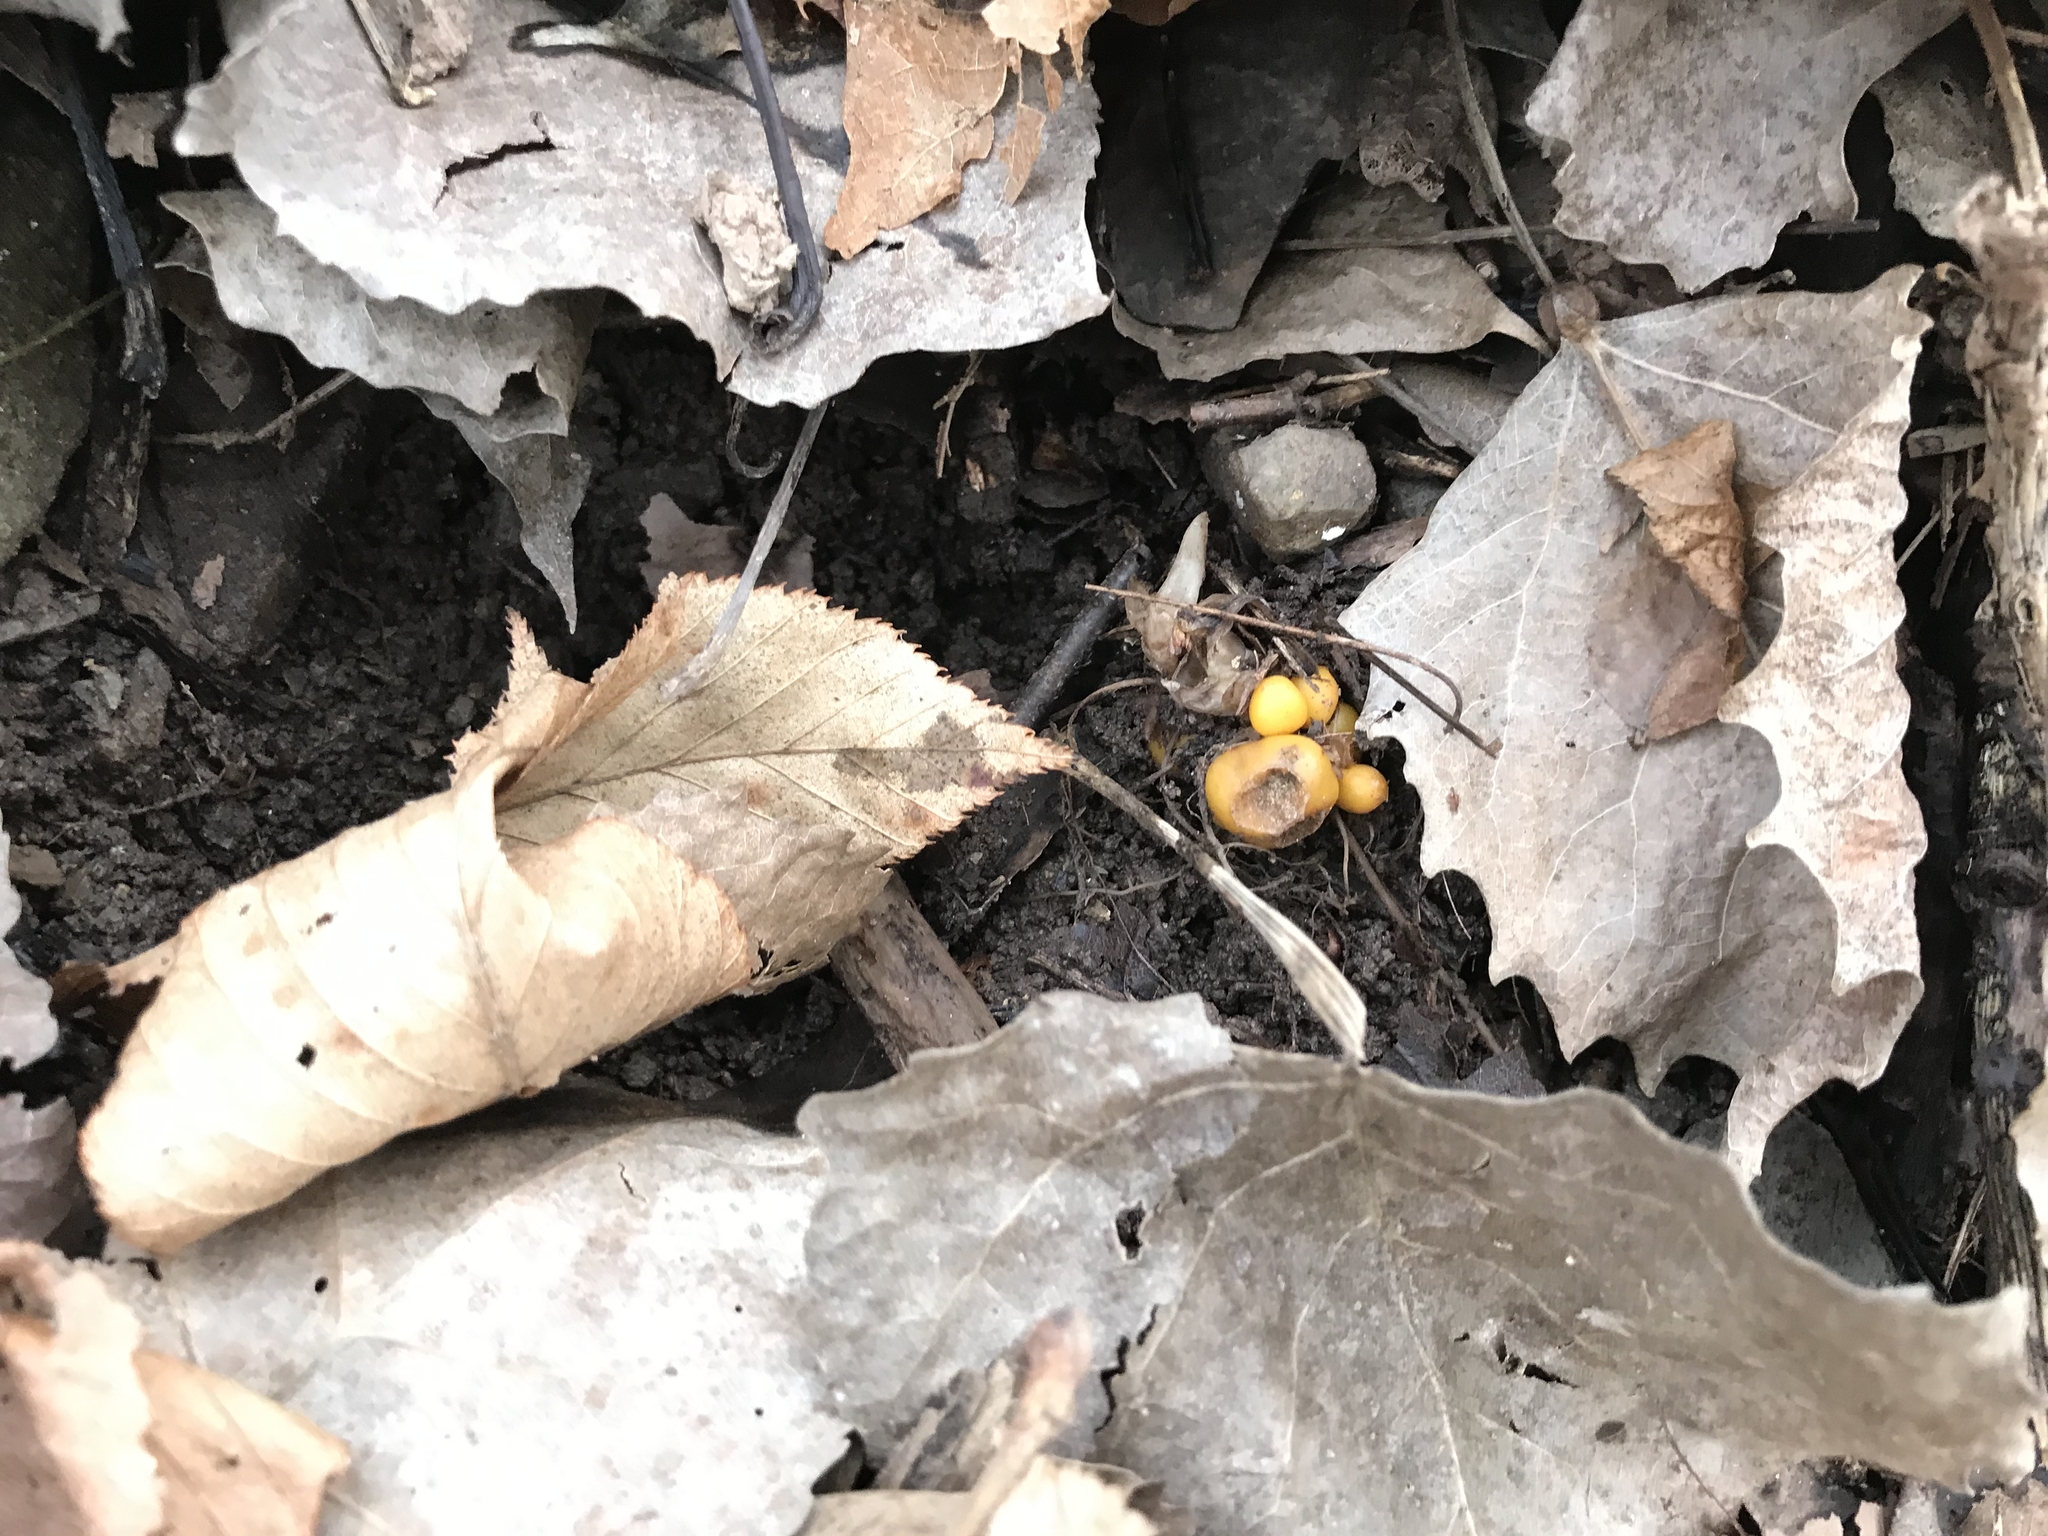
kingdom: Plantae
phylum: Tracheophyta
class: Magnoliopsida
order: Ranunculales
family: Papaveraceae
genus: Dicentra
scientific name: Dicentra canadensis
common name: Squirrel-corn
